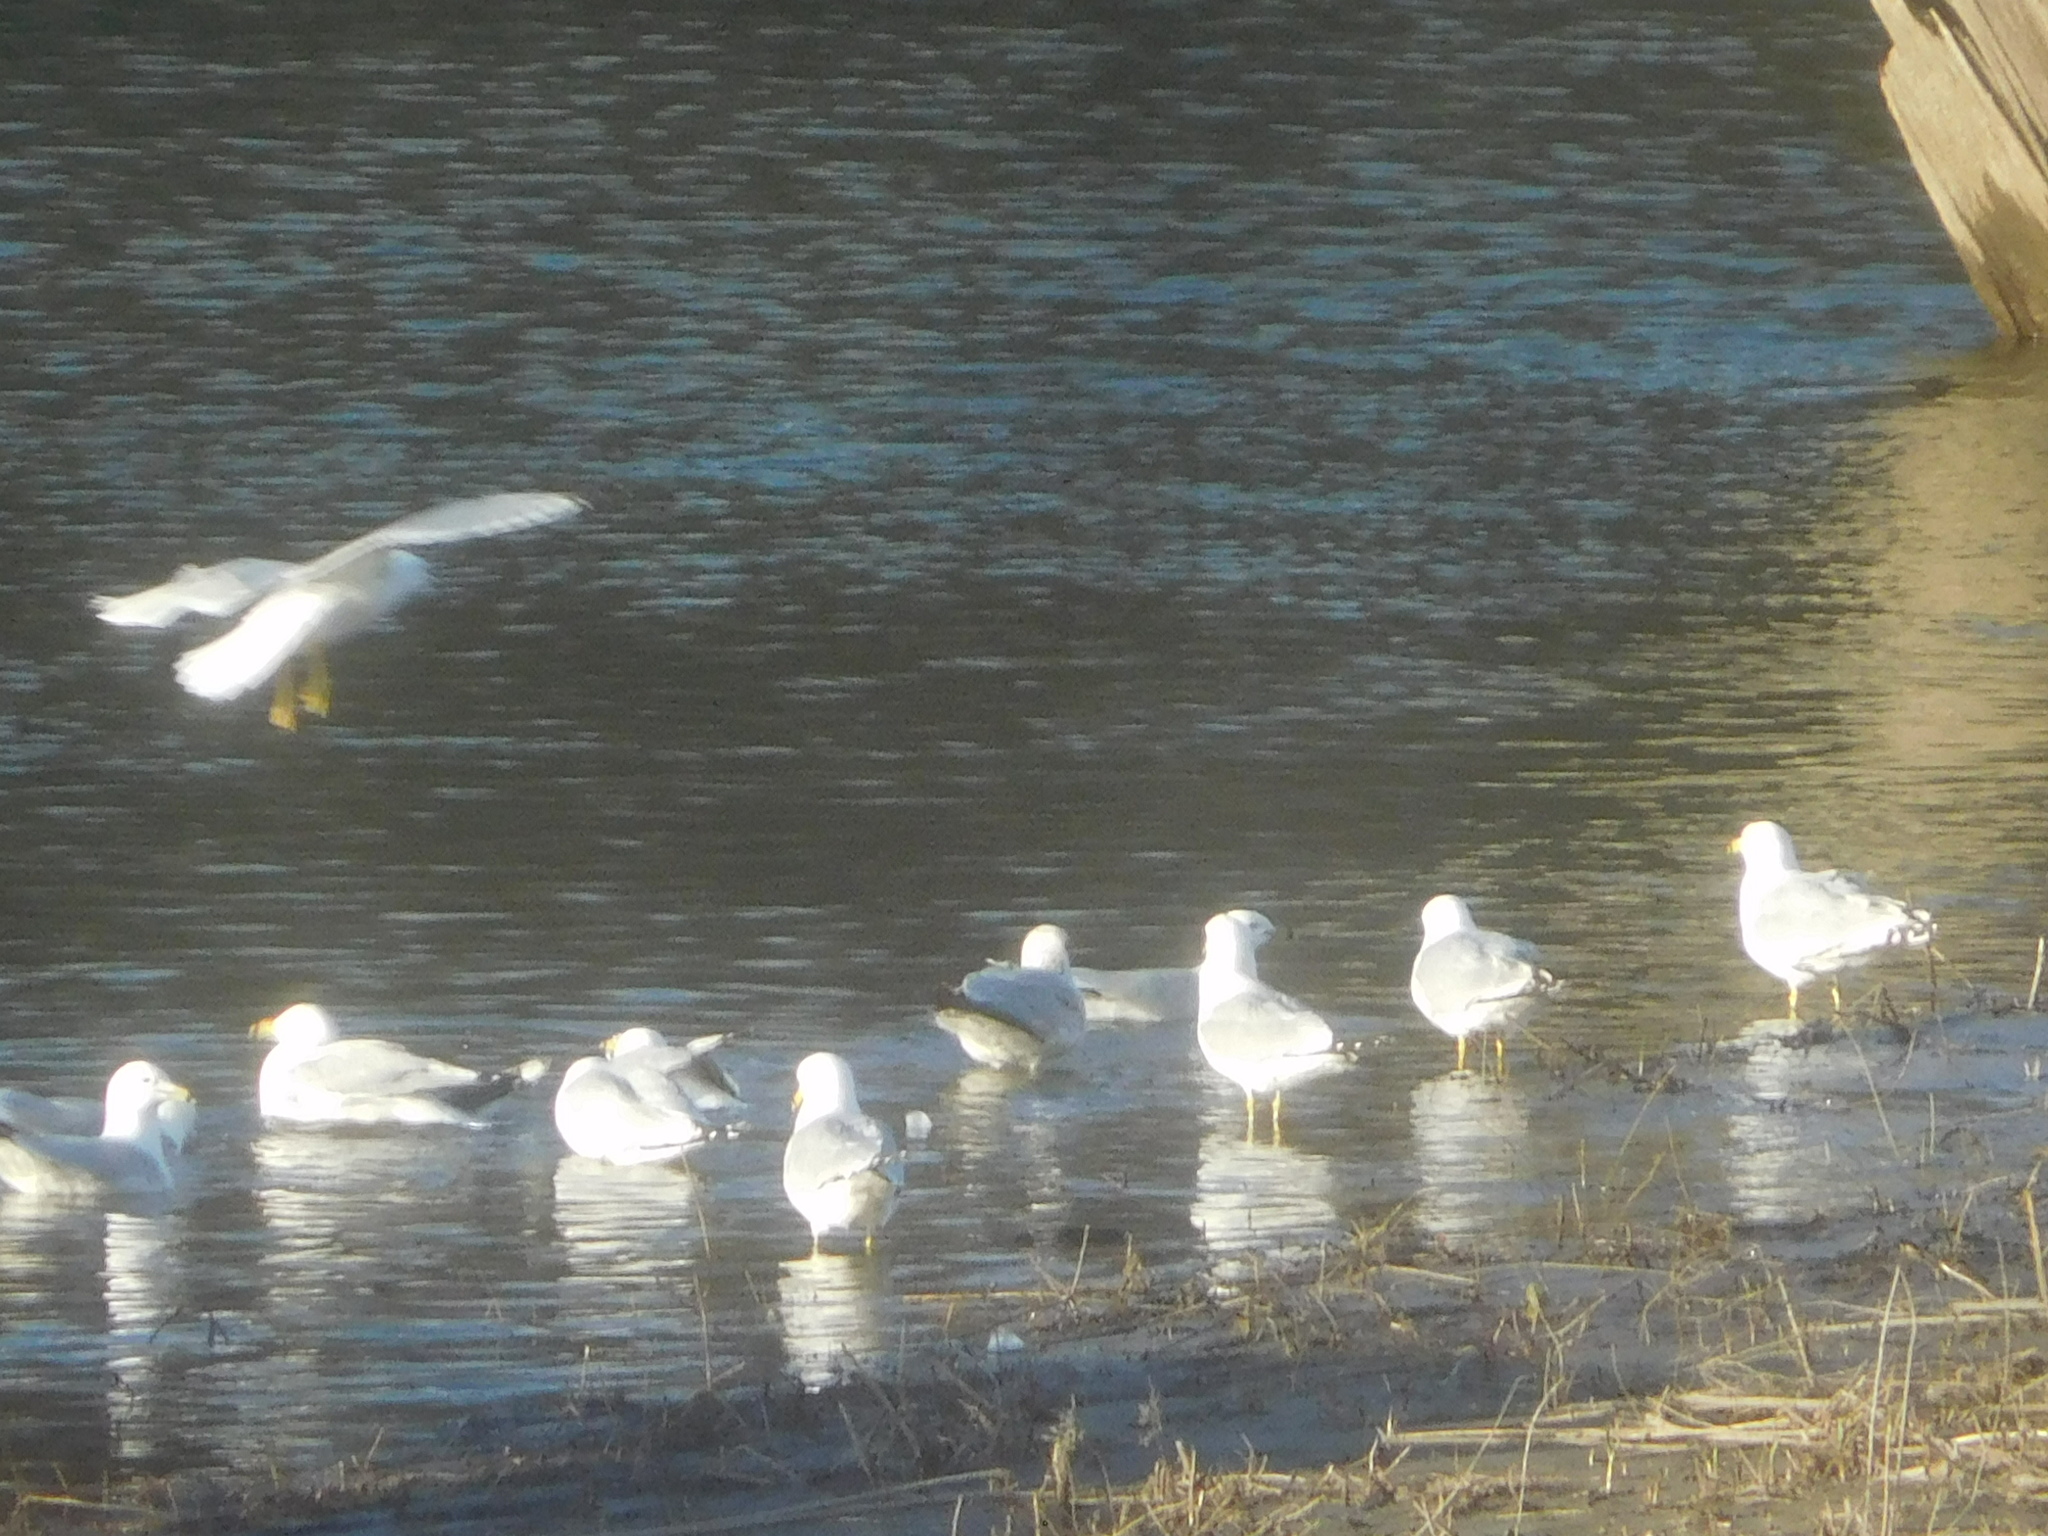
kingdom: Animalia
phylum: Chordata
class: Aves
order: Charadriiformes
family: Laridae
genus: Larus
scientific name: Larus delawarensis
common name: Ring-billed gull
